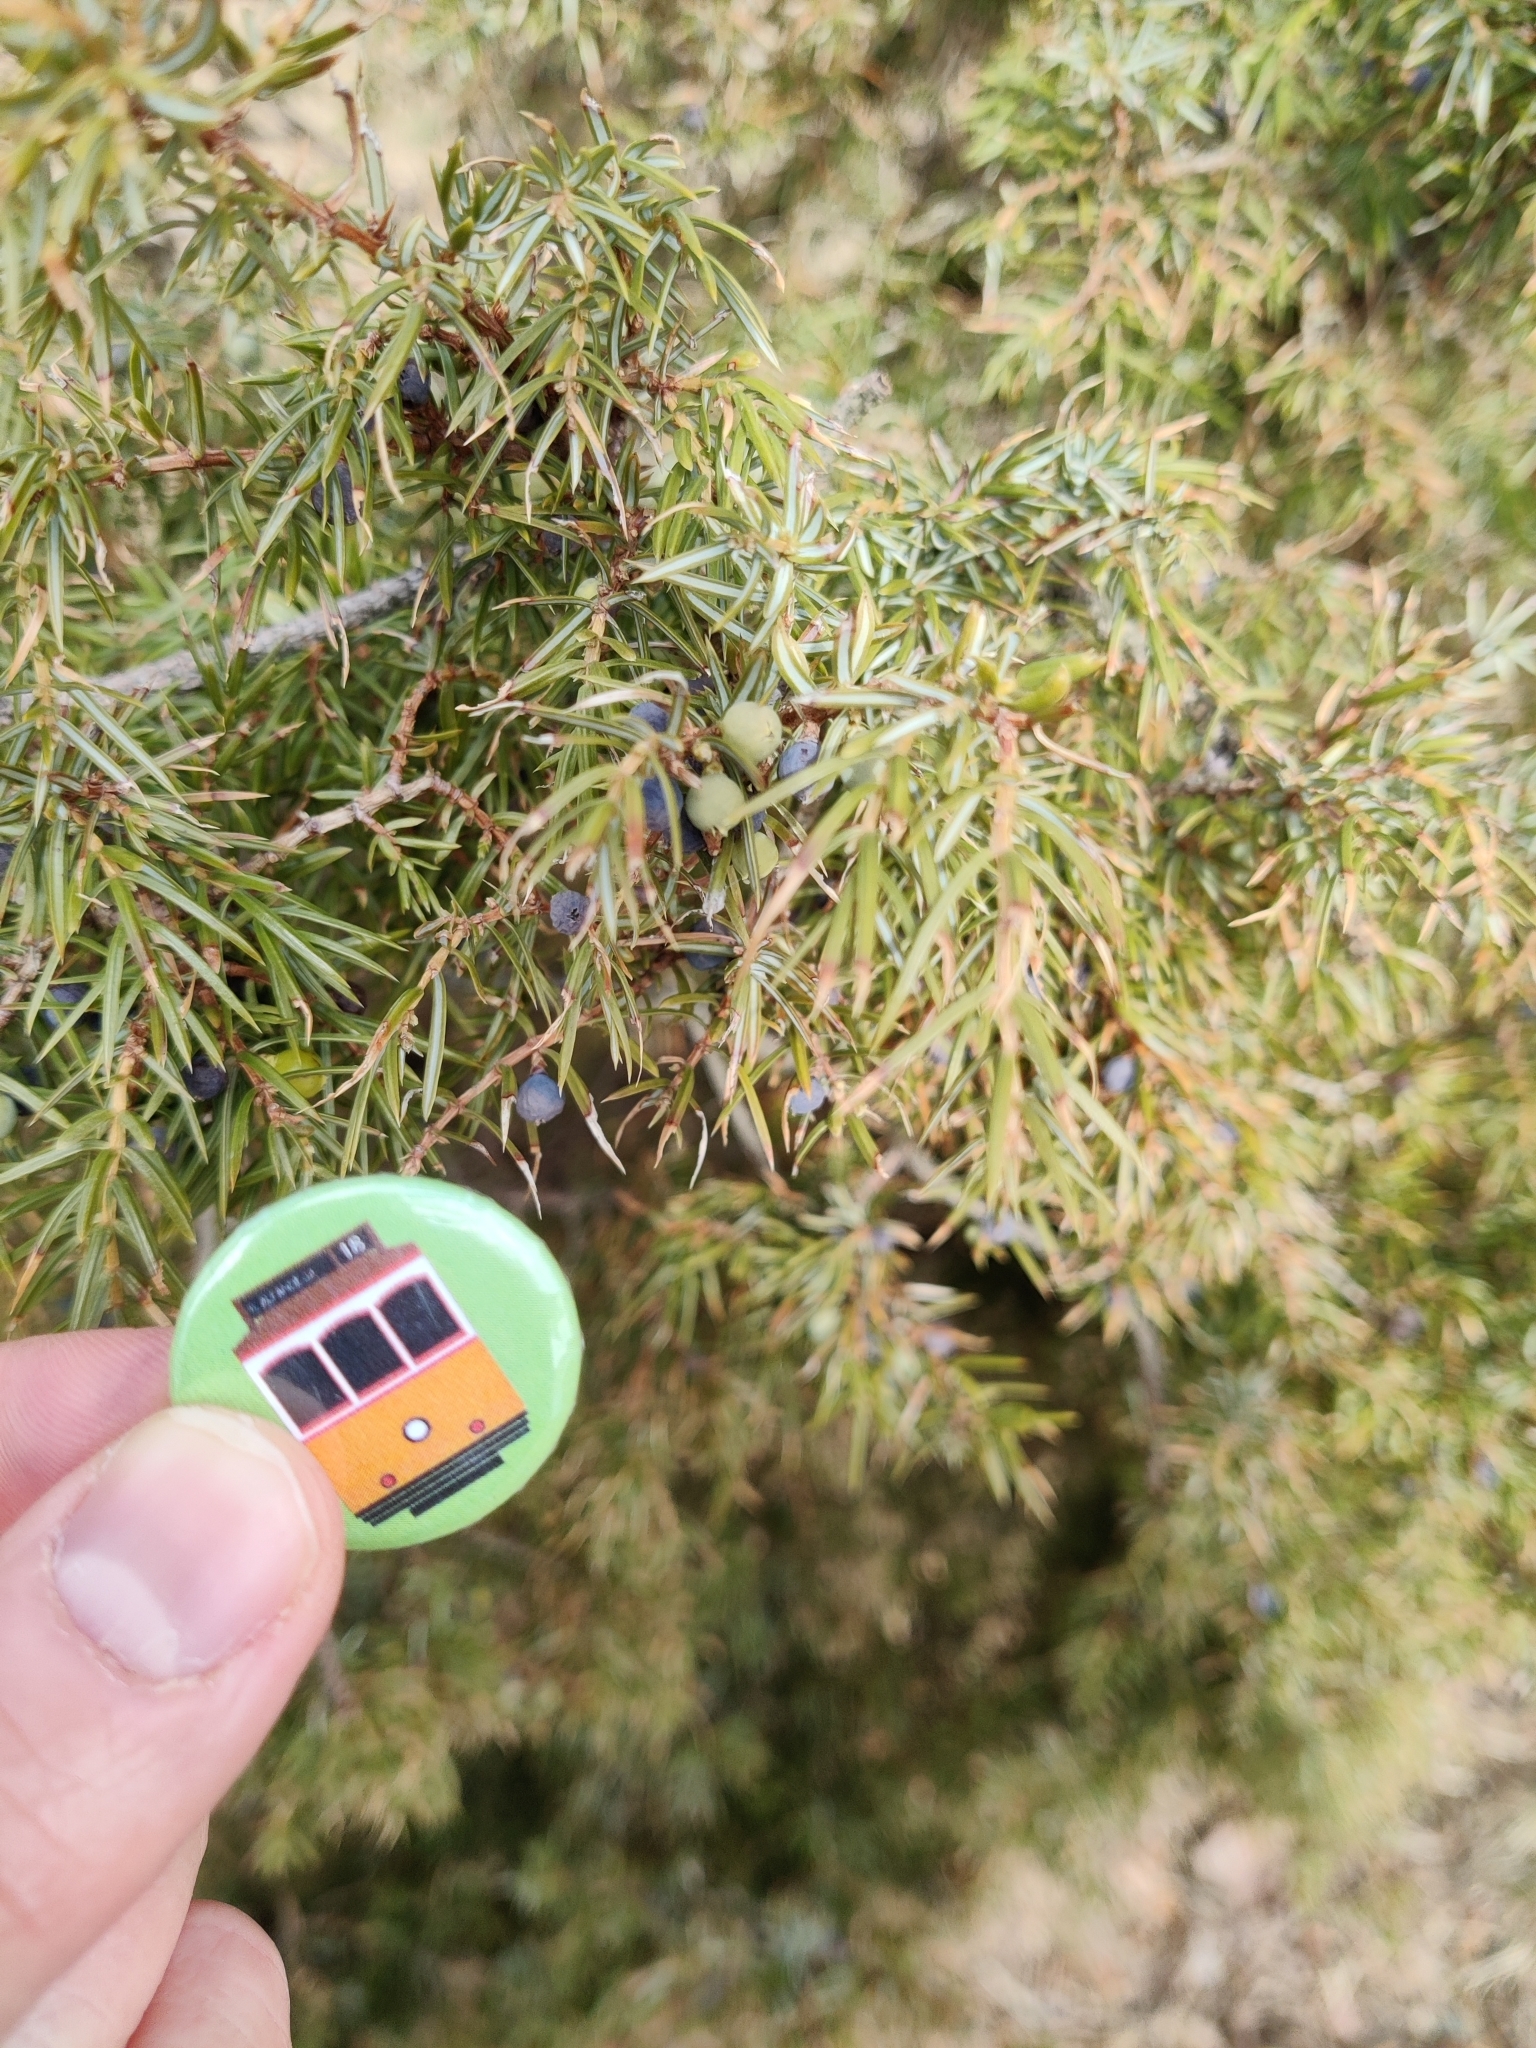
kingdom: Plantae
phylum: Tracheophyta
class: Pinopsida
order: Pinales
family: Cupressaceae
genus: Juniperus
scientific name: Juniperus communis
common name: Common juniper
